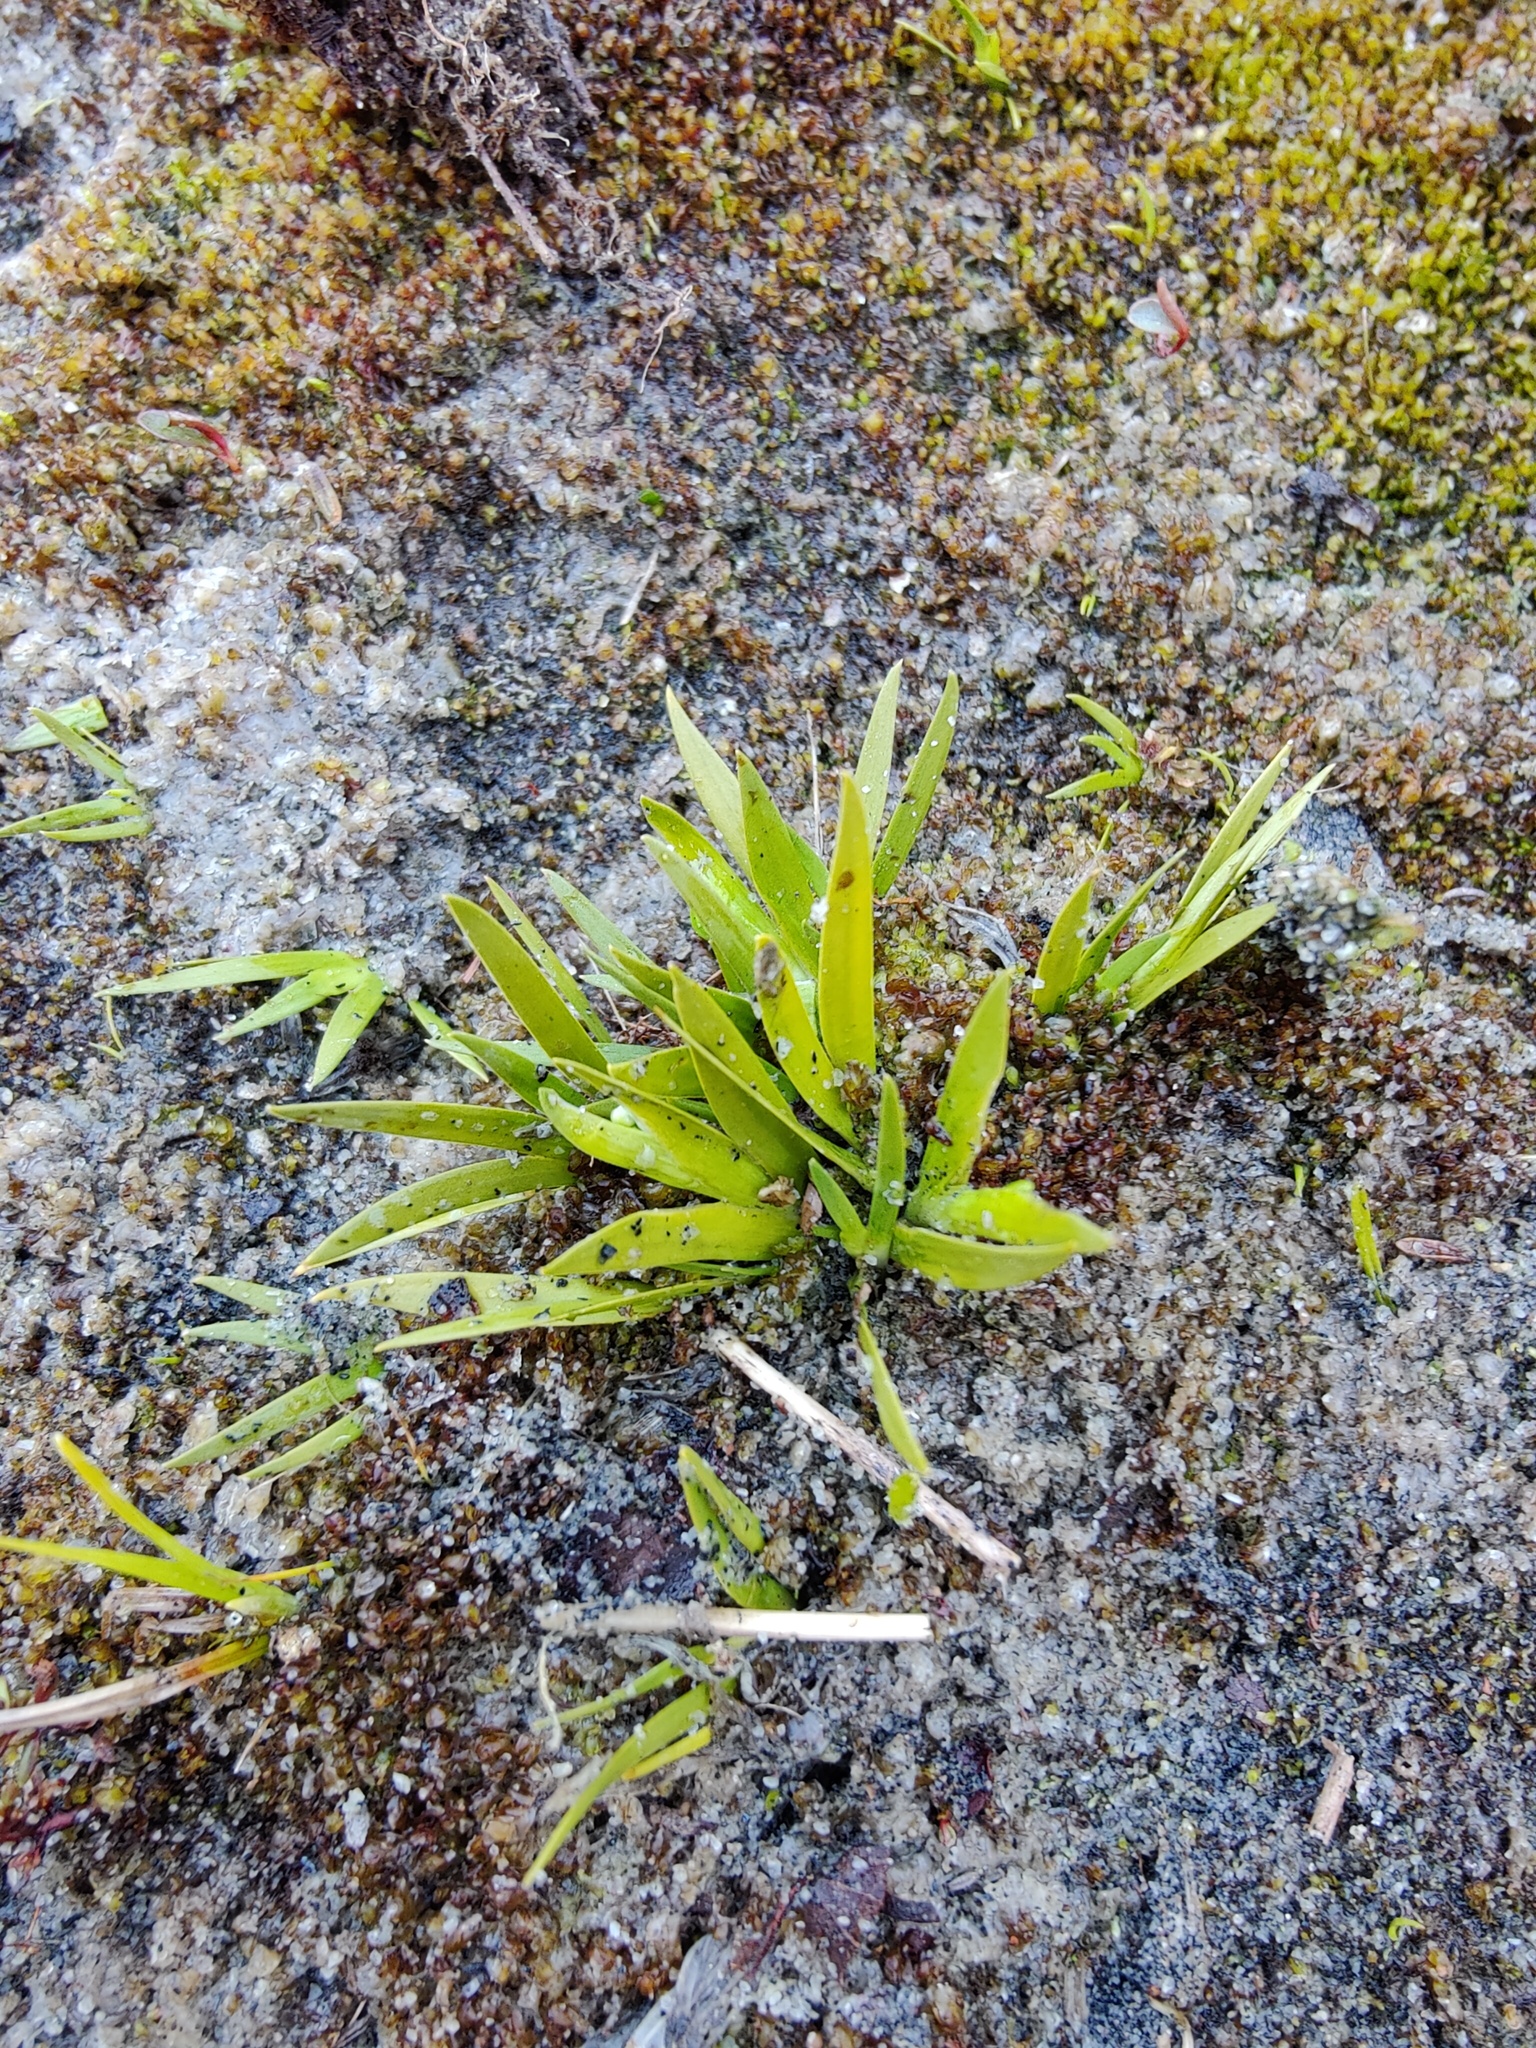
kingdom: Plantae
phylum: Tracheophyta
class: Liliopsida
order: Alismatales
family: Tofieldiaceae
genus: Tofieldia
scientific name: Tofieldia pusilla
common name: Scottish false asphodel
